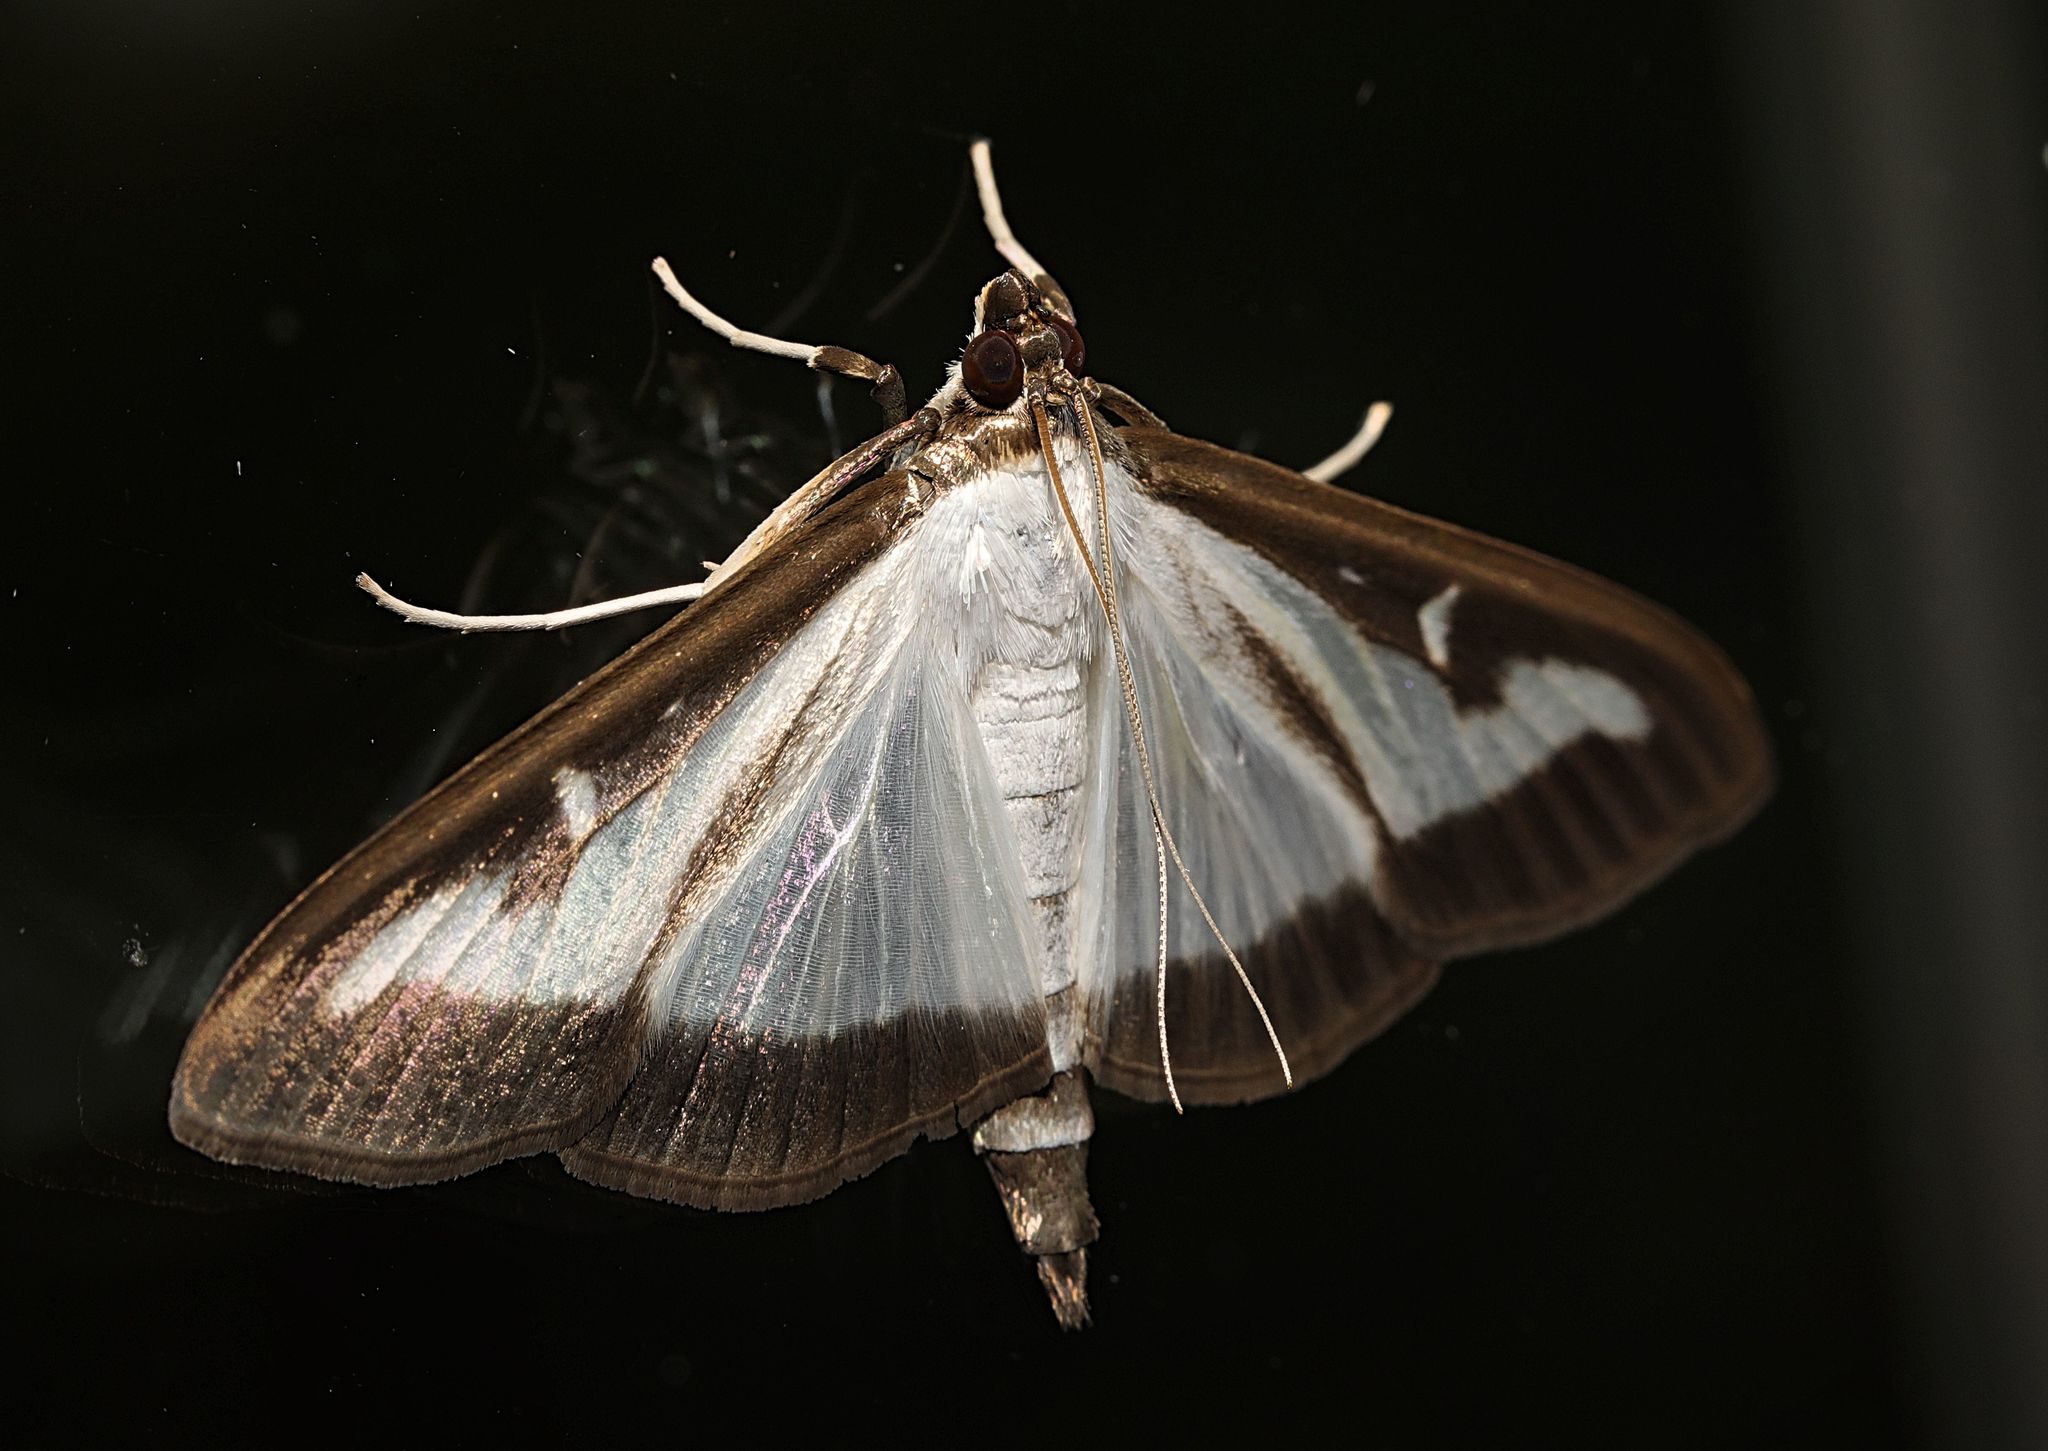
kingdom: Animalia
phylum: Arthropoda
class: Insecta
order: Lepidoptera
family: Crambidae
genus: Cydalima
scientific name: Cydalima perspectalis
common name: Box tree moth
